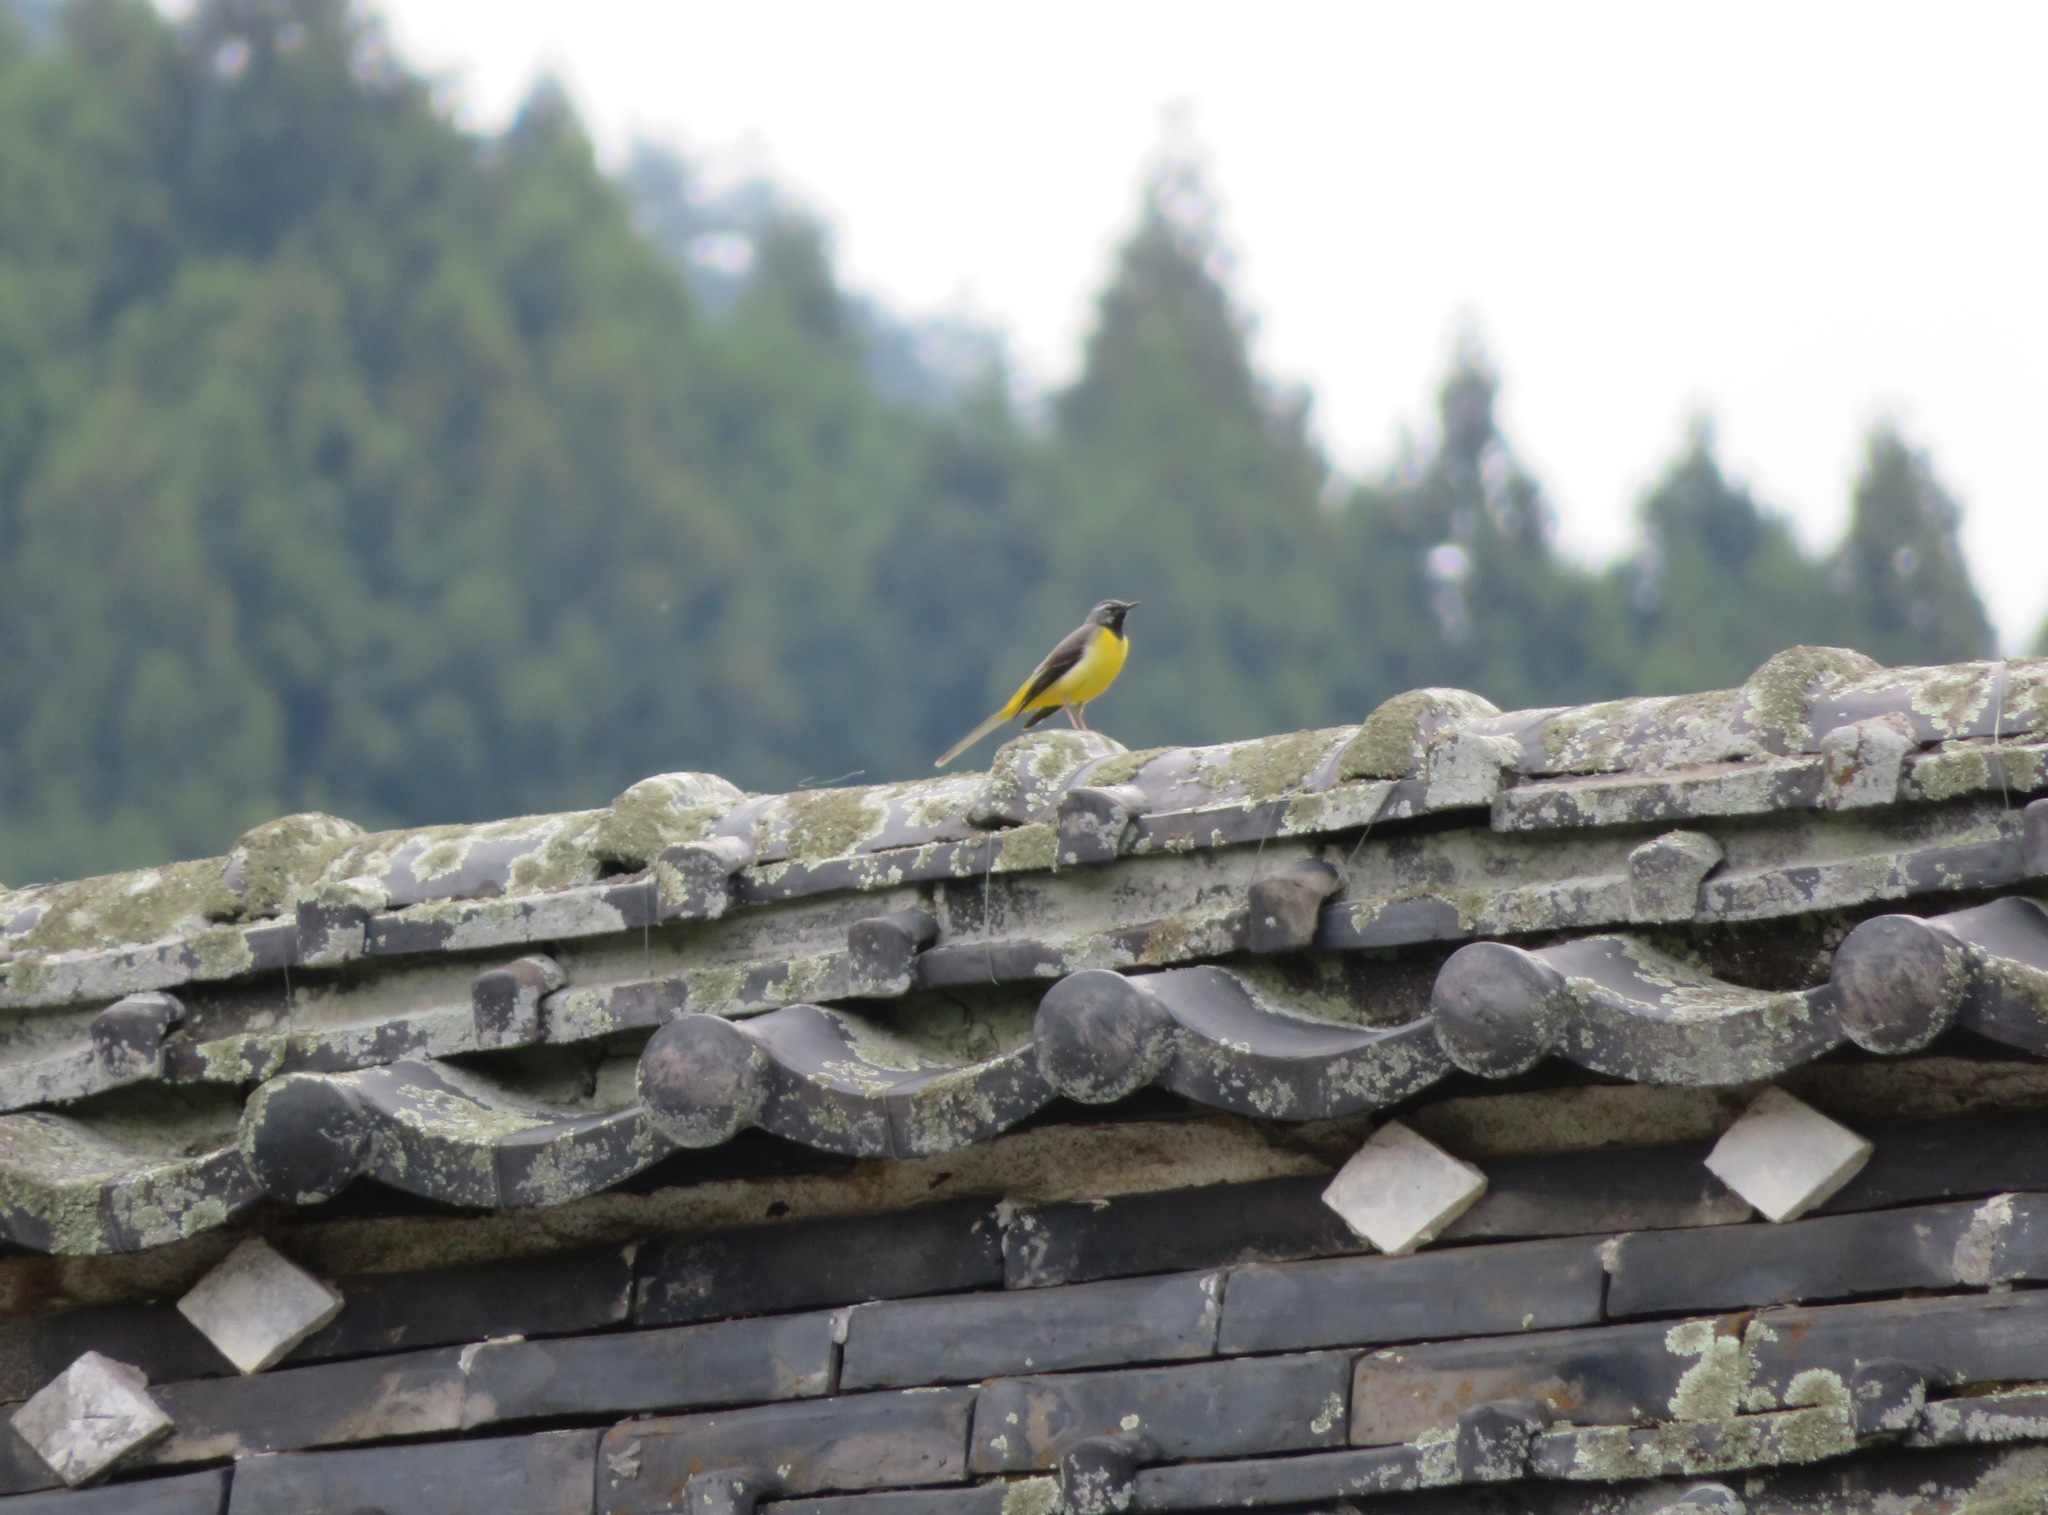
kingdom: Animalia
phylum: Chordata
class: Aves
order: Passeriformes
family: Motacillidae
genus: Motacilla
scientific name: Motacilla cinerea
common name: Grey wagtail
